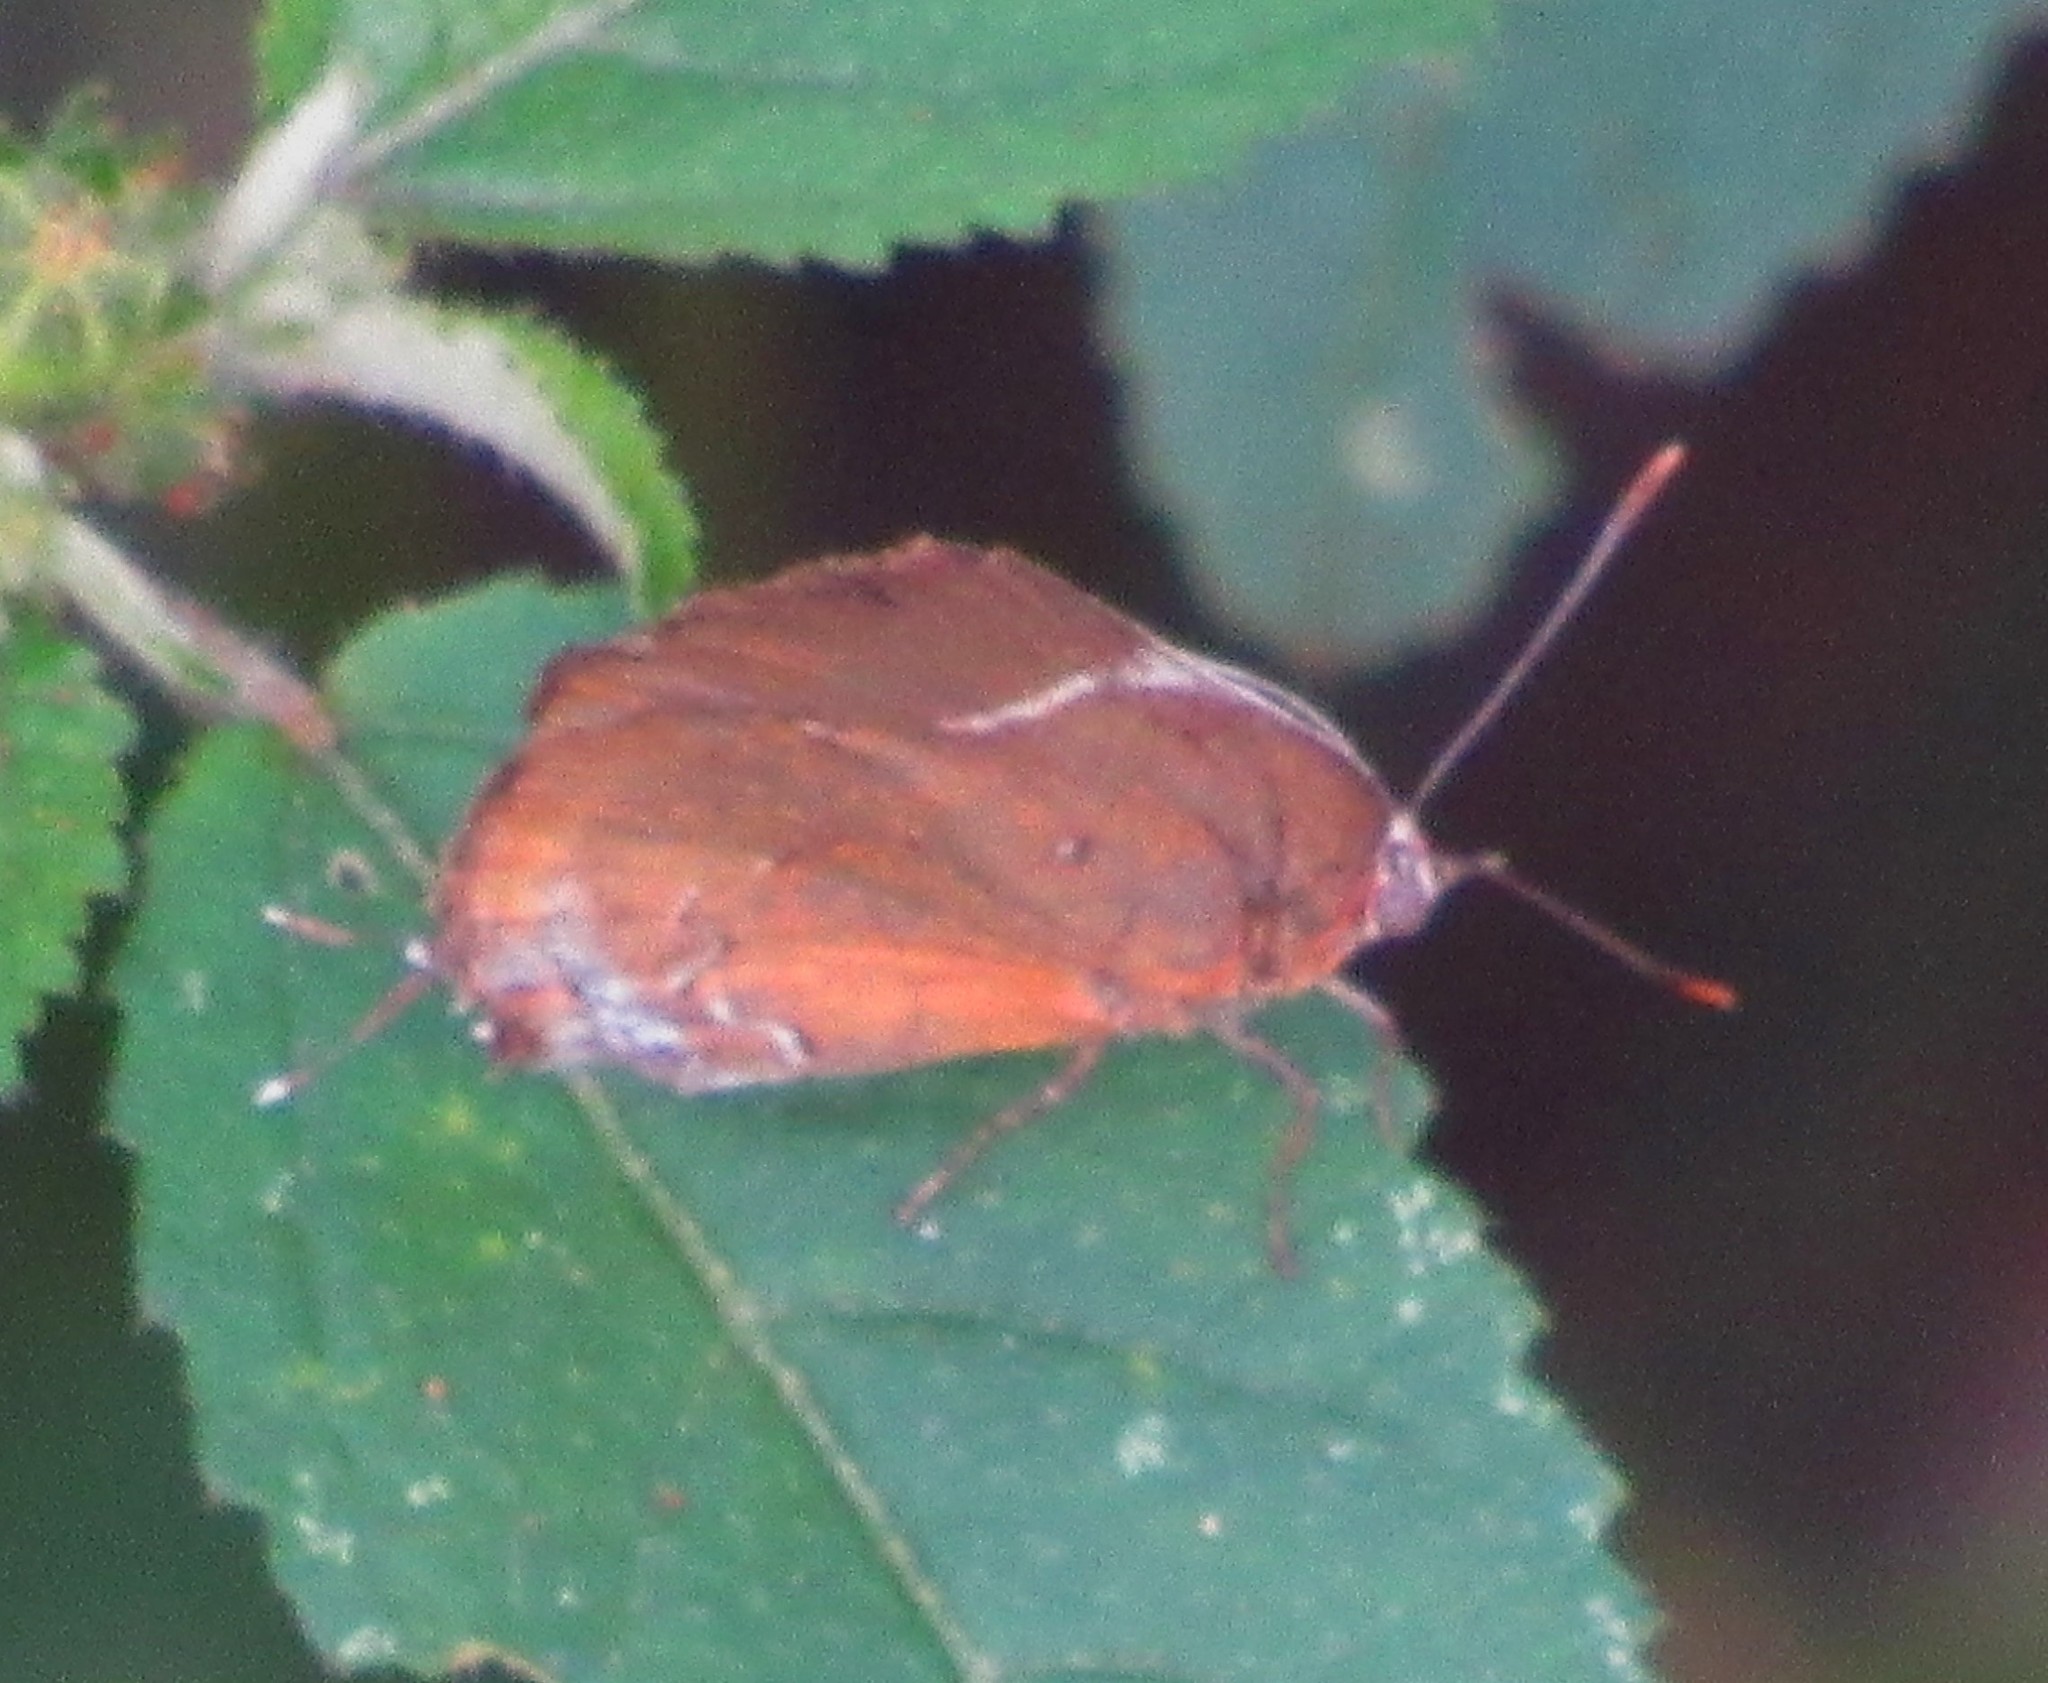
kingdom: Animalia
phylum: Arthropoda
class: Insecta
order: Lepidoptera
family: Lycaenidae
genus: Porthecla
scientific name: Porthecla ravus
